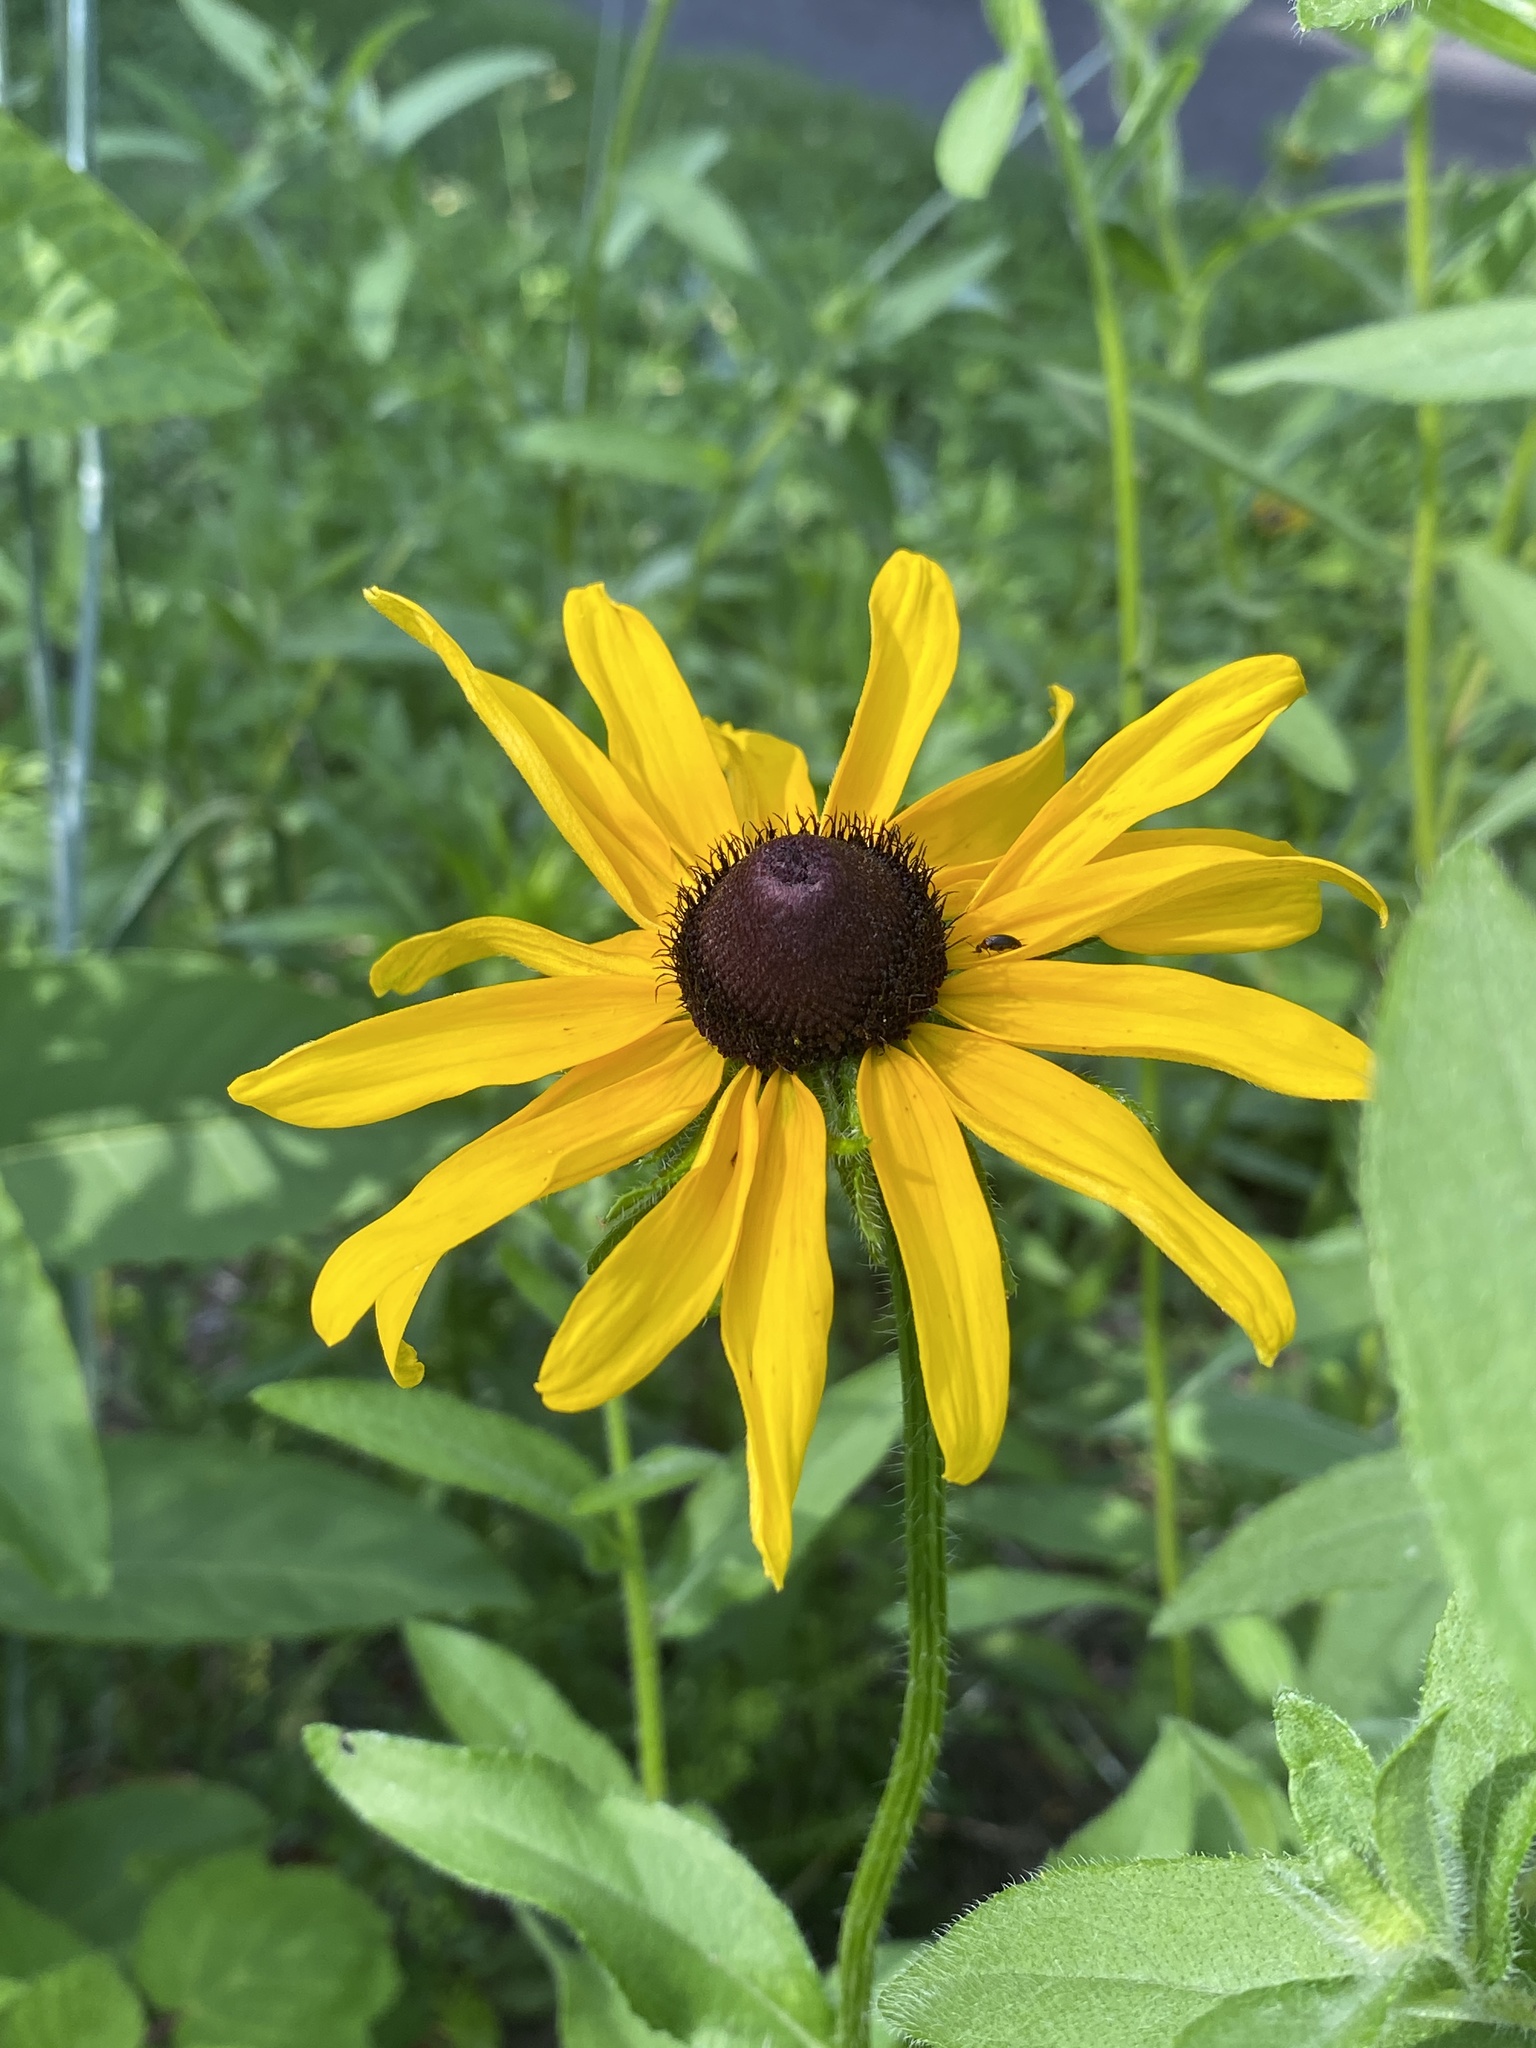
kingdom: Plantae
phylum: Tracheophyta
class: Magnoliopsida
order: Asterales
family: Asteraceae
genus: Rudbeckia
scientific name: Rudbeckia hirta
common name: Black-eyed-susan
